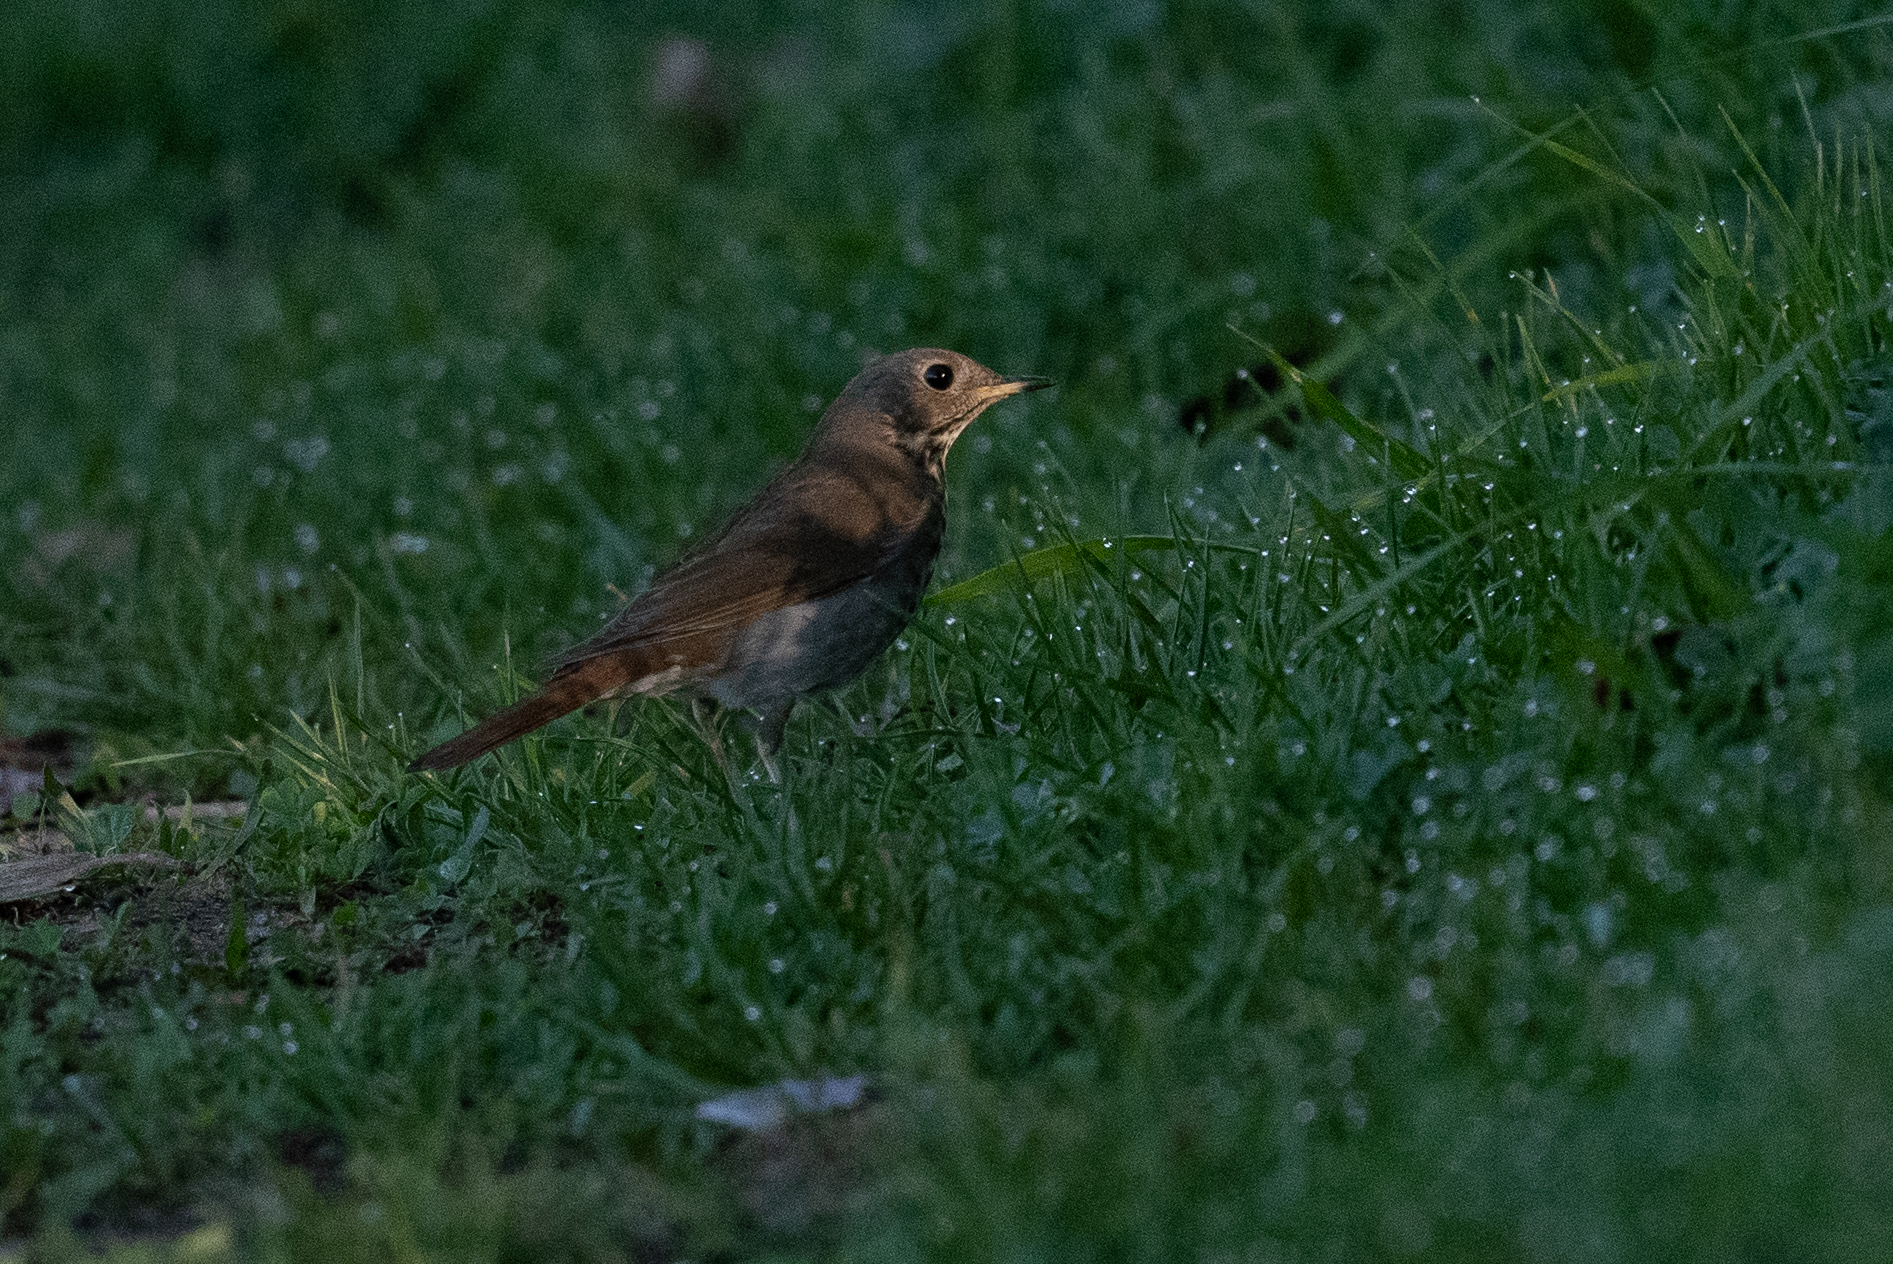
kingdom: Animalia
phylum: Chordata
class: Aves
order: Passeriformes
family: Turdidae
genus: Catharus
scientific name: Catharus guttatus
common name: Hermit thrush
